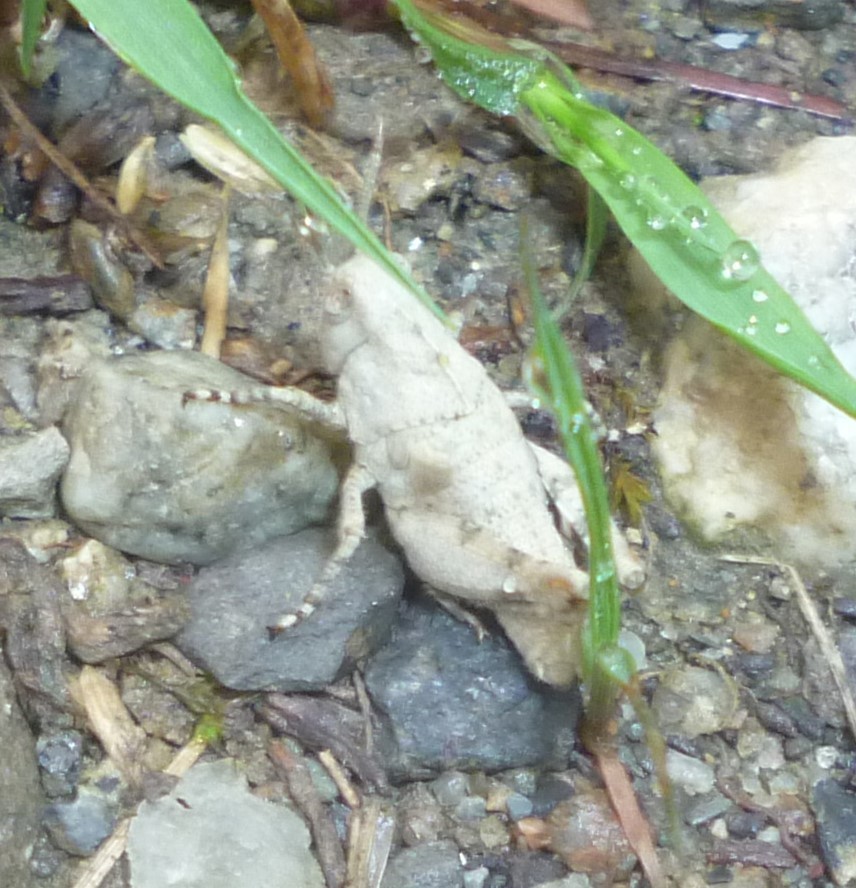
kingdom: Animalia
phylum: Arthropoda
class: Insecta
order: Orthoptera
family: Acrididae
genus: Dissosteira
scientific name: Dissosteira carolina
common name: Carolina grasshopper
